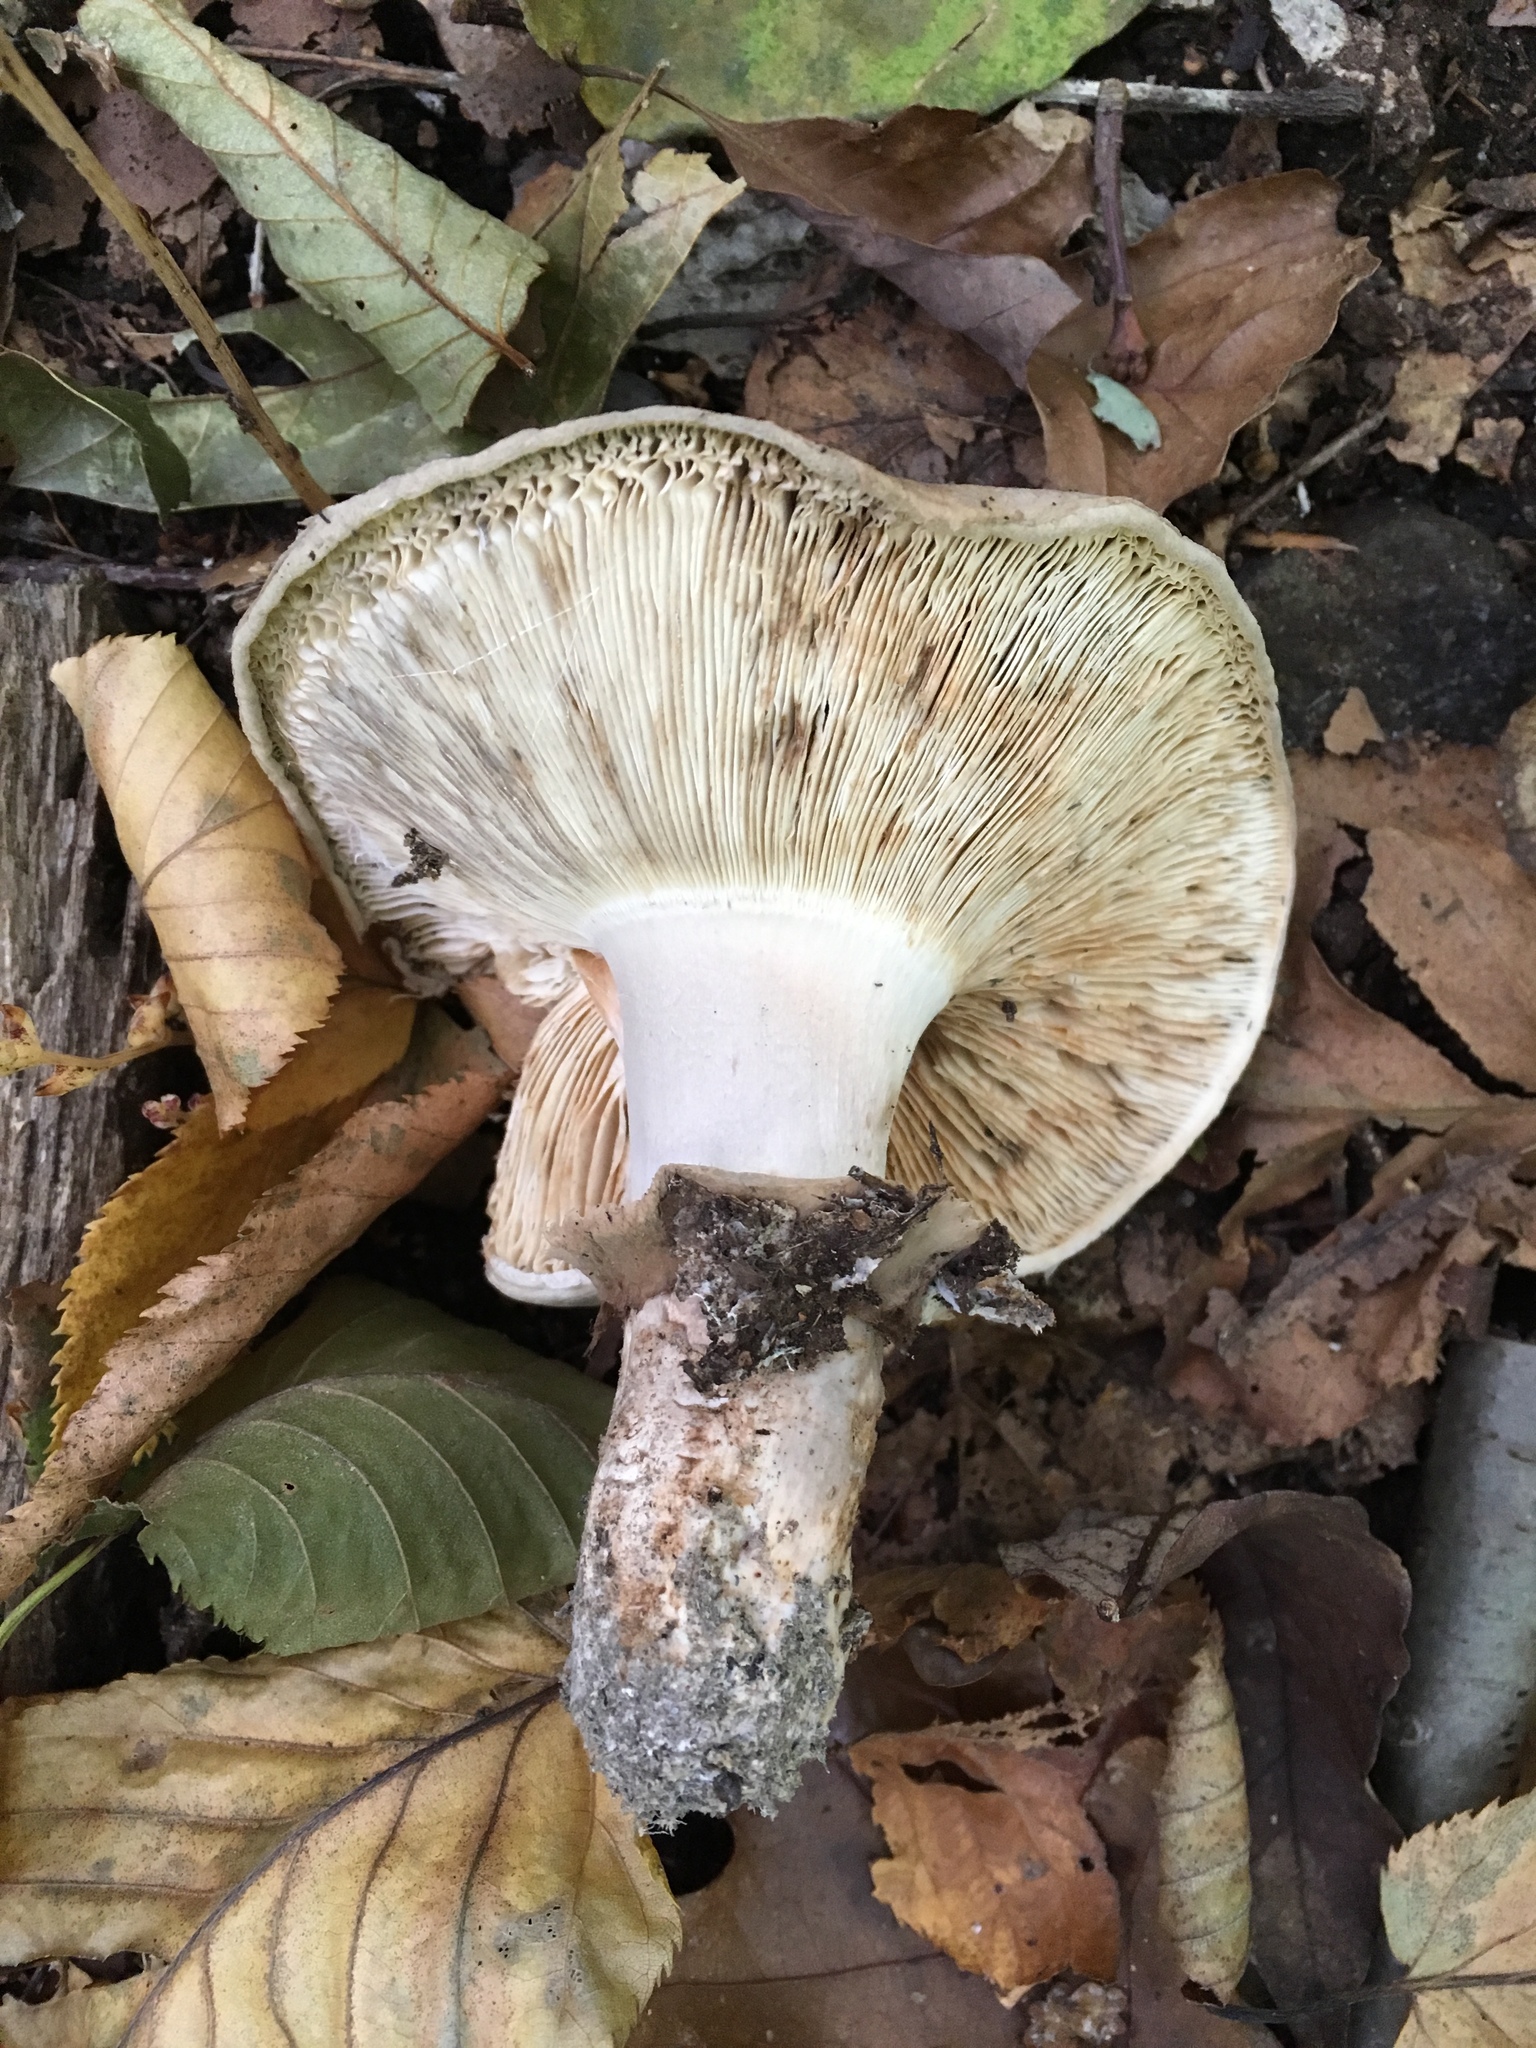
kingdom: Fungi
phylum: Basidiomycota
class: Agaricomycetes
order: Agaricales
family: Tricholomataceae
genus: Tricholoma
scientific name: Tricholoma caligatum
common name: True booted knight
